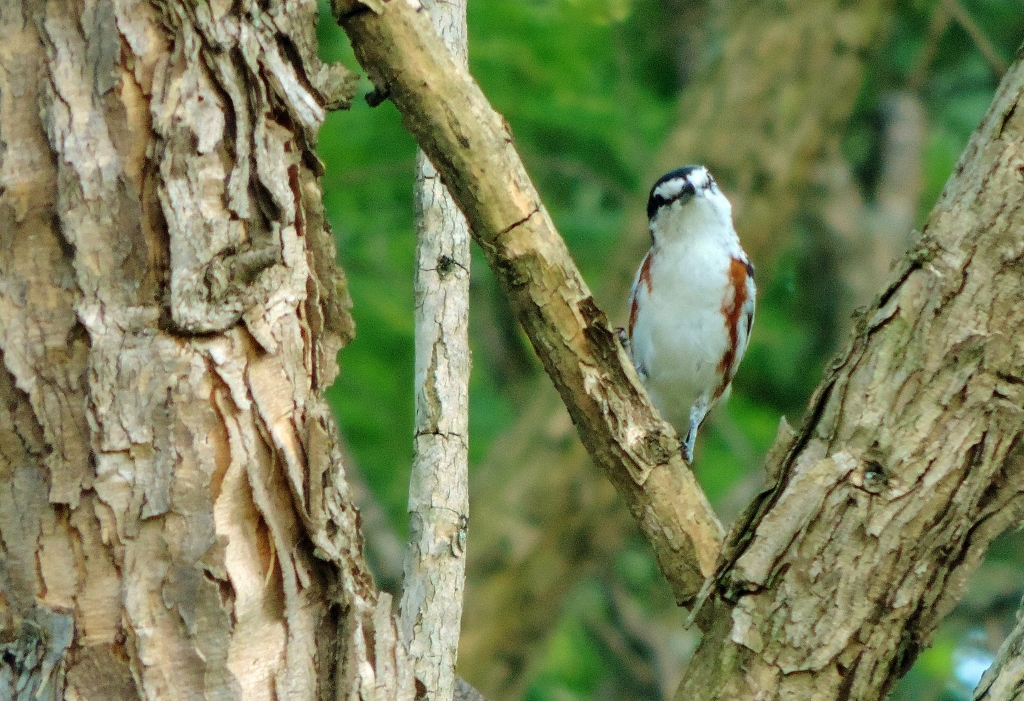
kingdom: Animalia
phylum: Chordata
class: Aves
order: Passeriformes
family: Malaconotidae
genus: Nilaus
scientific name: Nilaus afer
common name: Brubru
